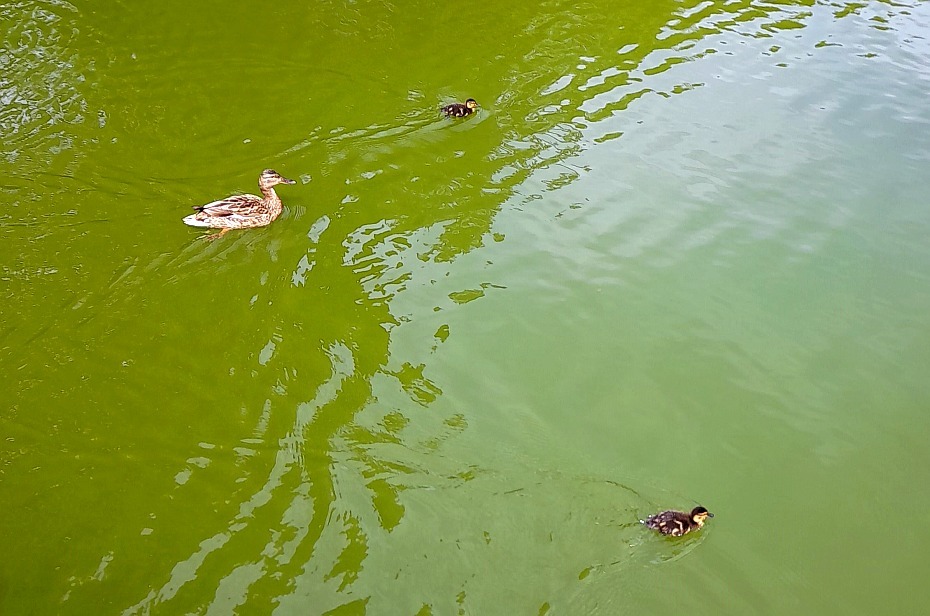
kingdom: Animalia
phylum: Chordata
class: Aves
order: Anseriformes
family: Anatidae
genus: Anas
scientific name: Anas platyrhynchos
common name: Mallard
